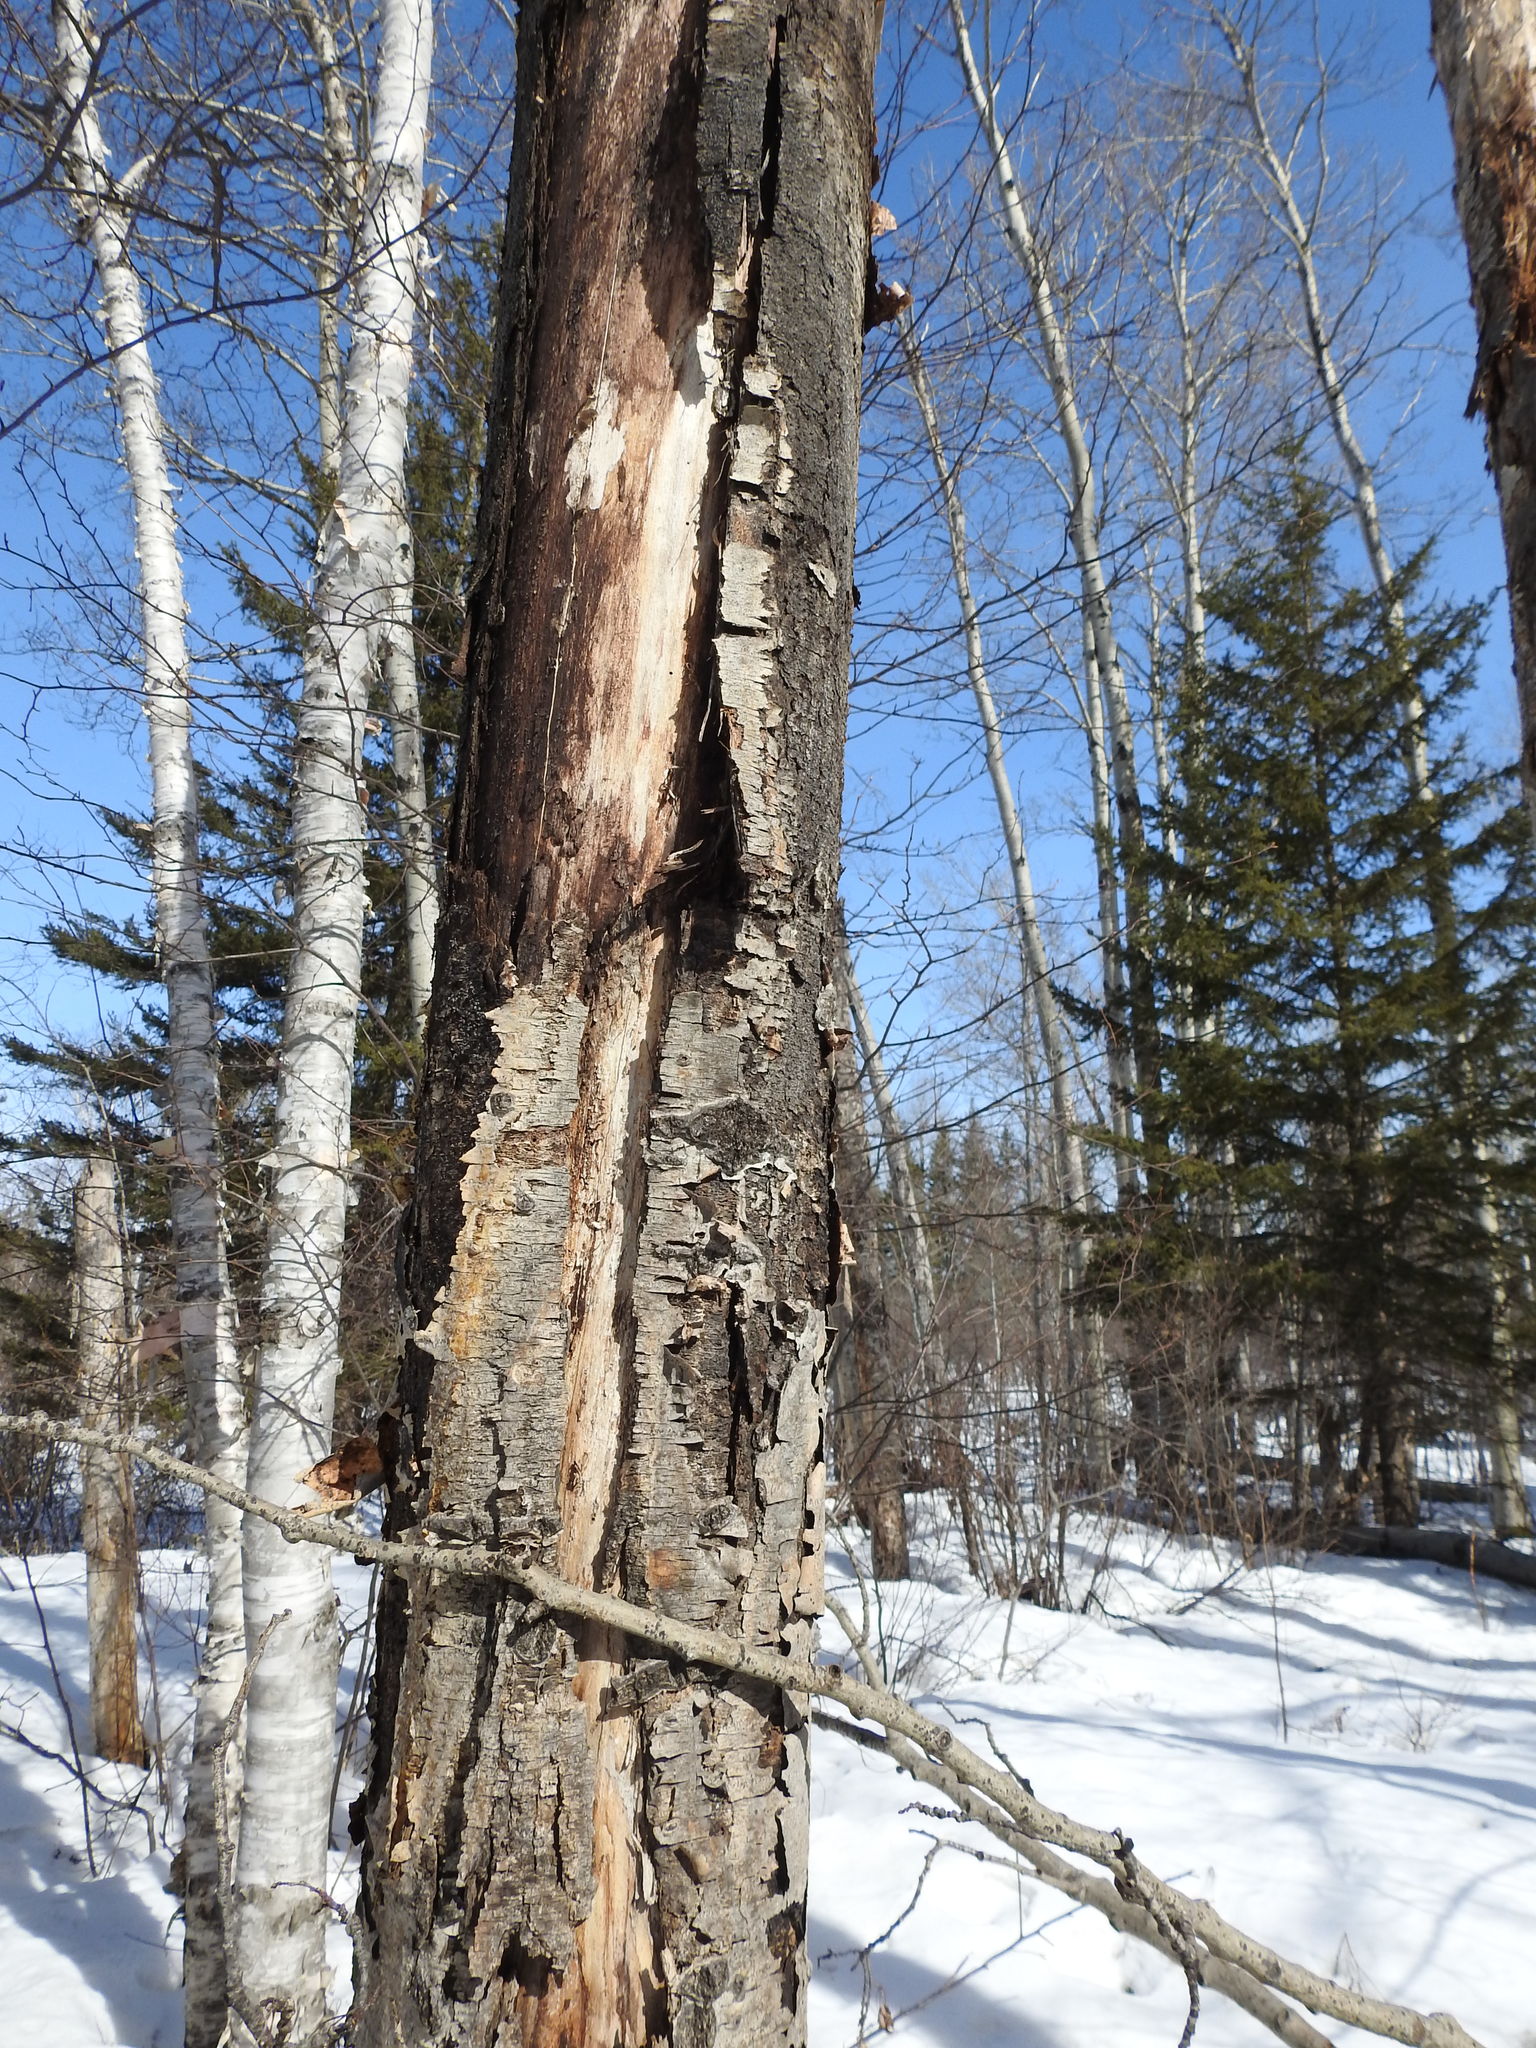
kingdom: Plantae
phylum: Tracheophyta
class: Magnoliopsida
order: Malpighiales
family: Salicaceae
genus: Populus
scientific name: Populus tremuloides
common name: Quaking aspen
